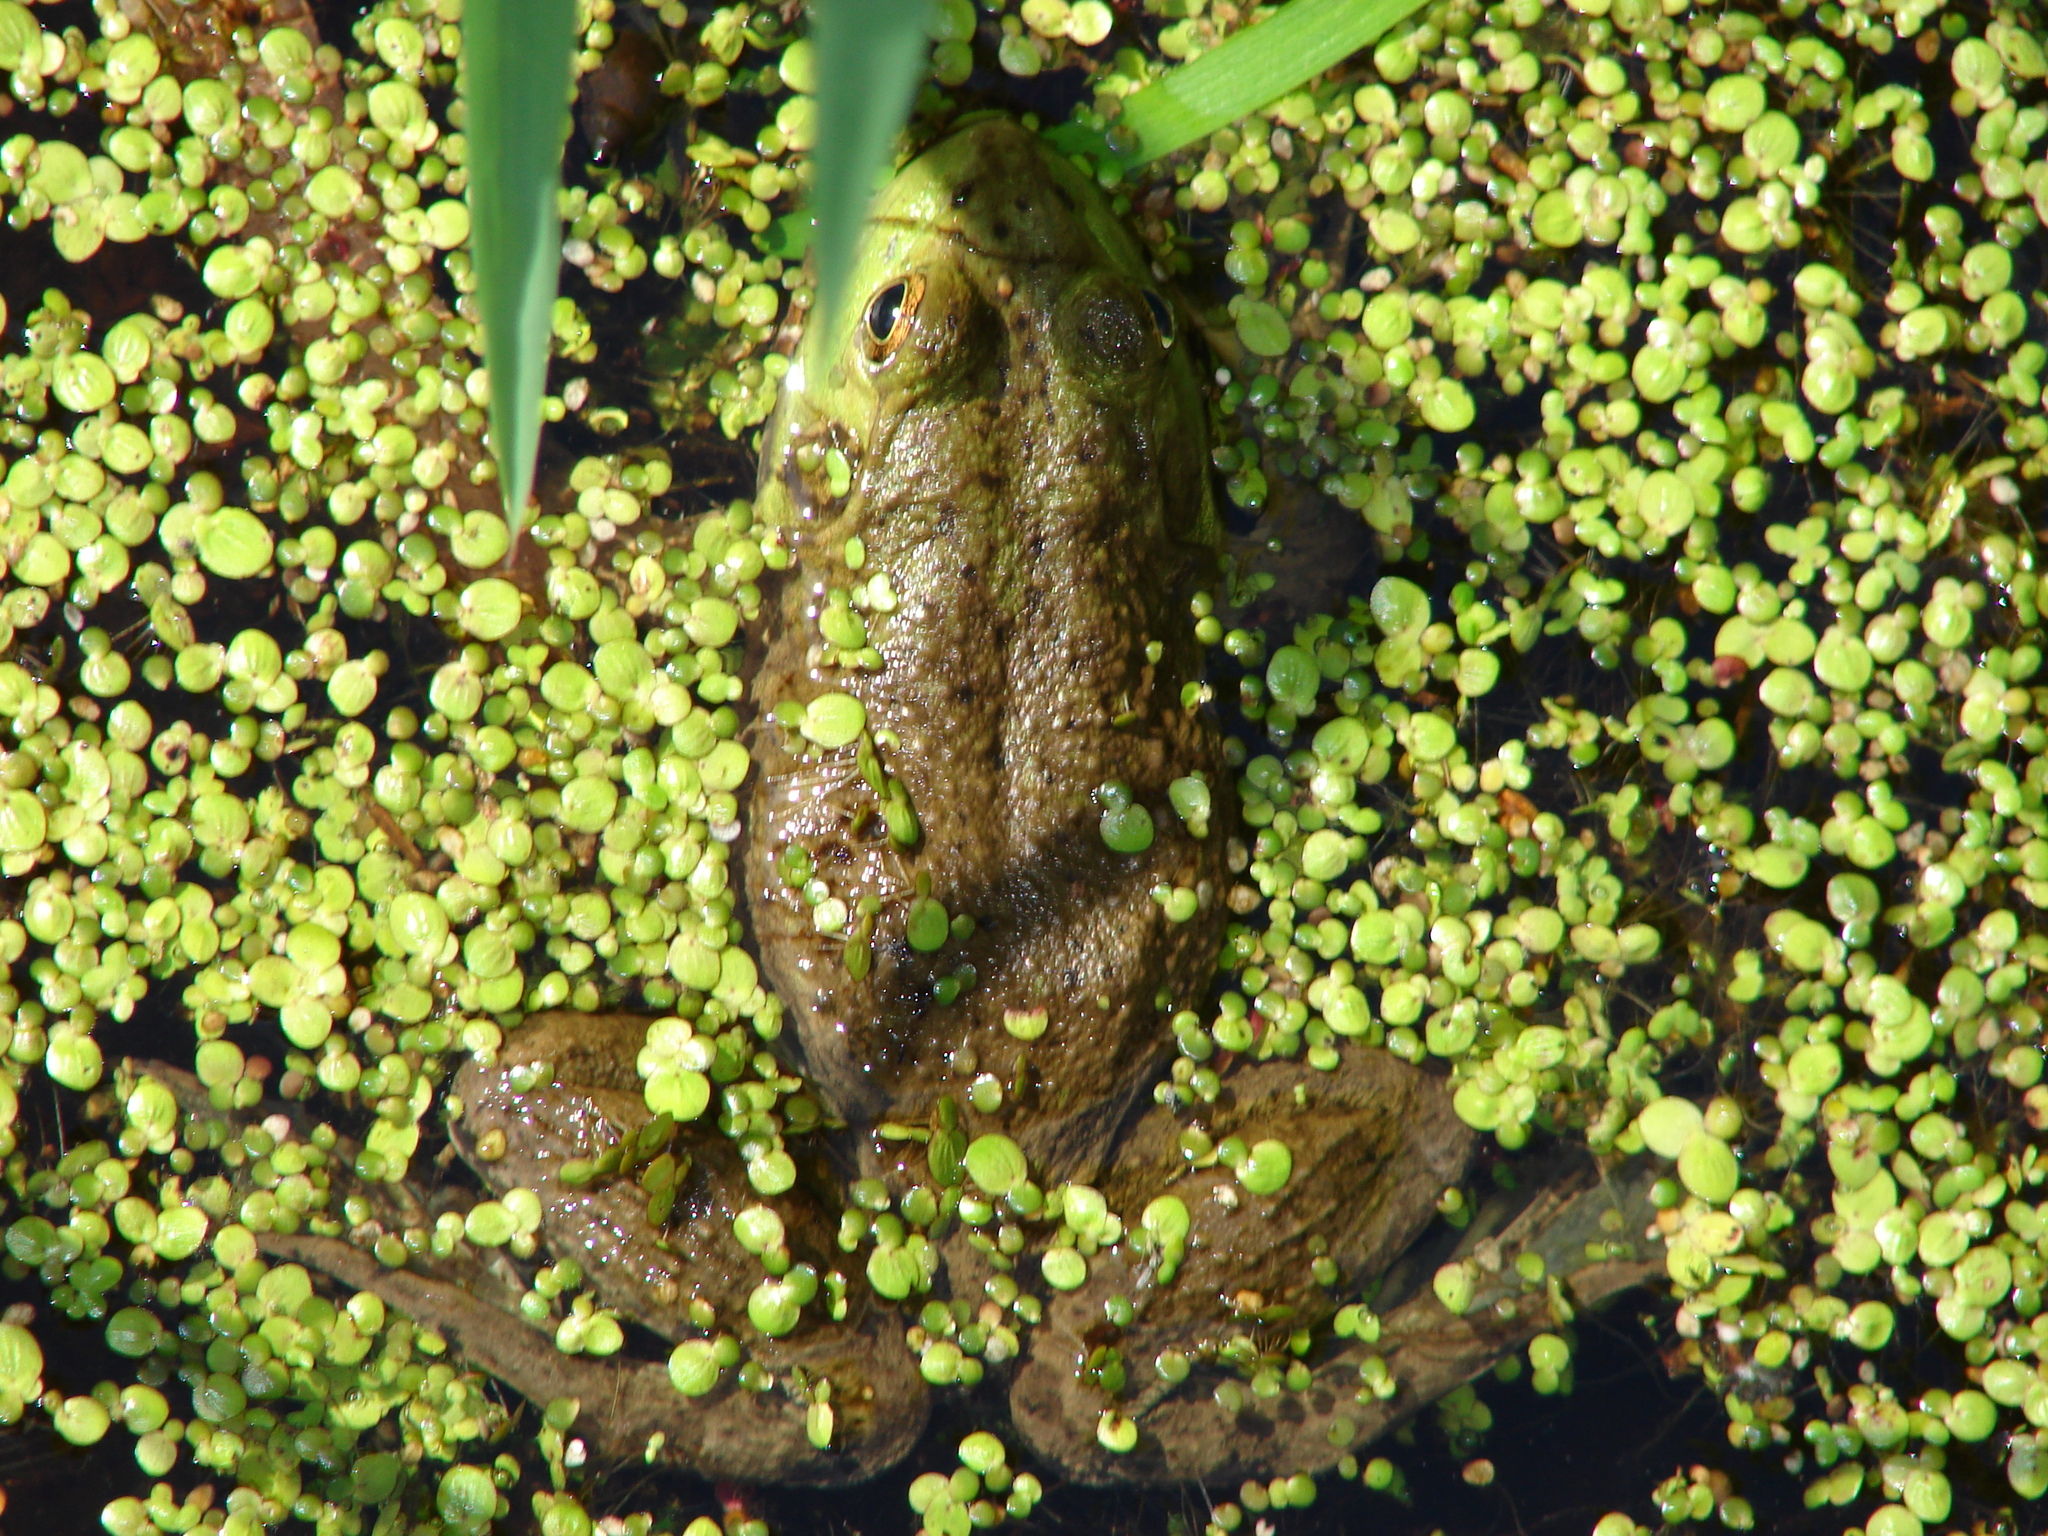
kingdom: Animalia
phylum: Chordata
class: Amphibia
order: Anura
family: Ranidae
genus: Lithobates
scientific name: Lithobates catesbeianus
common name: American bullfrog
